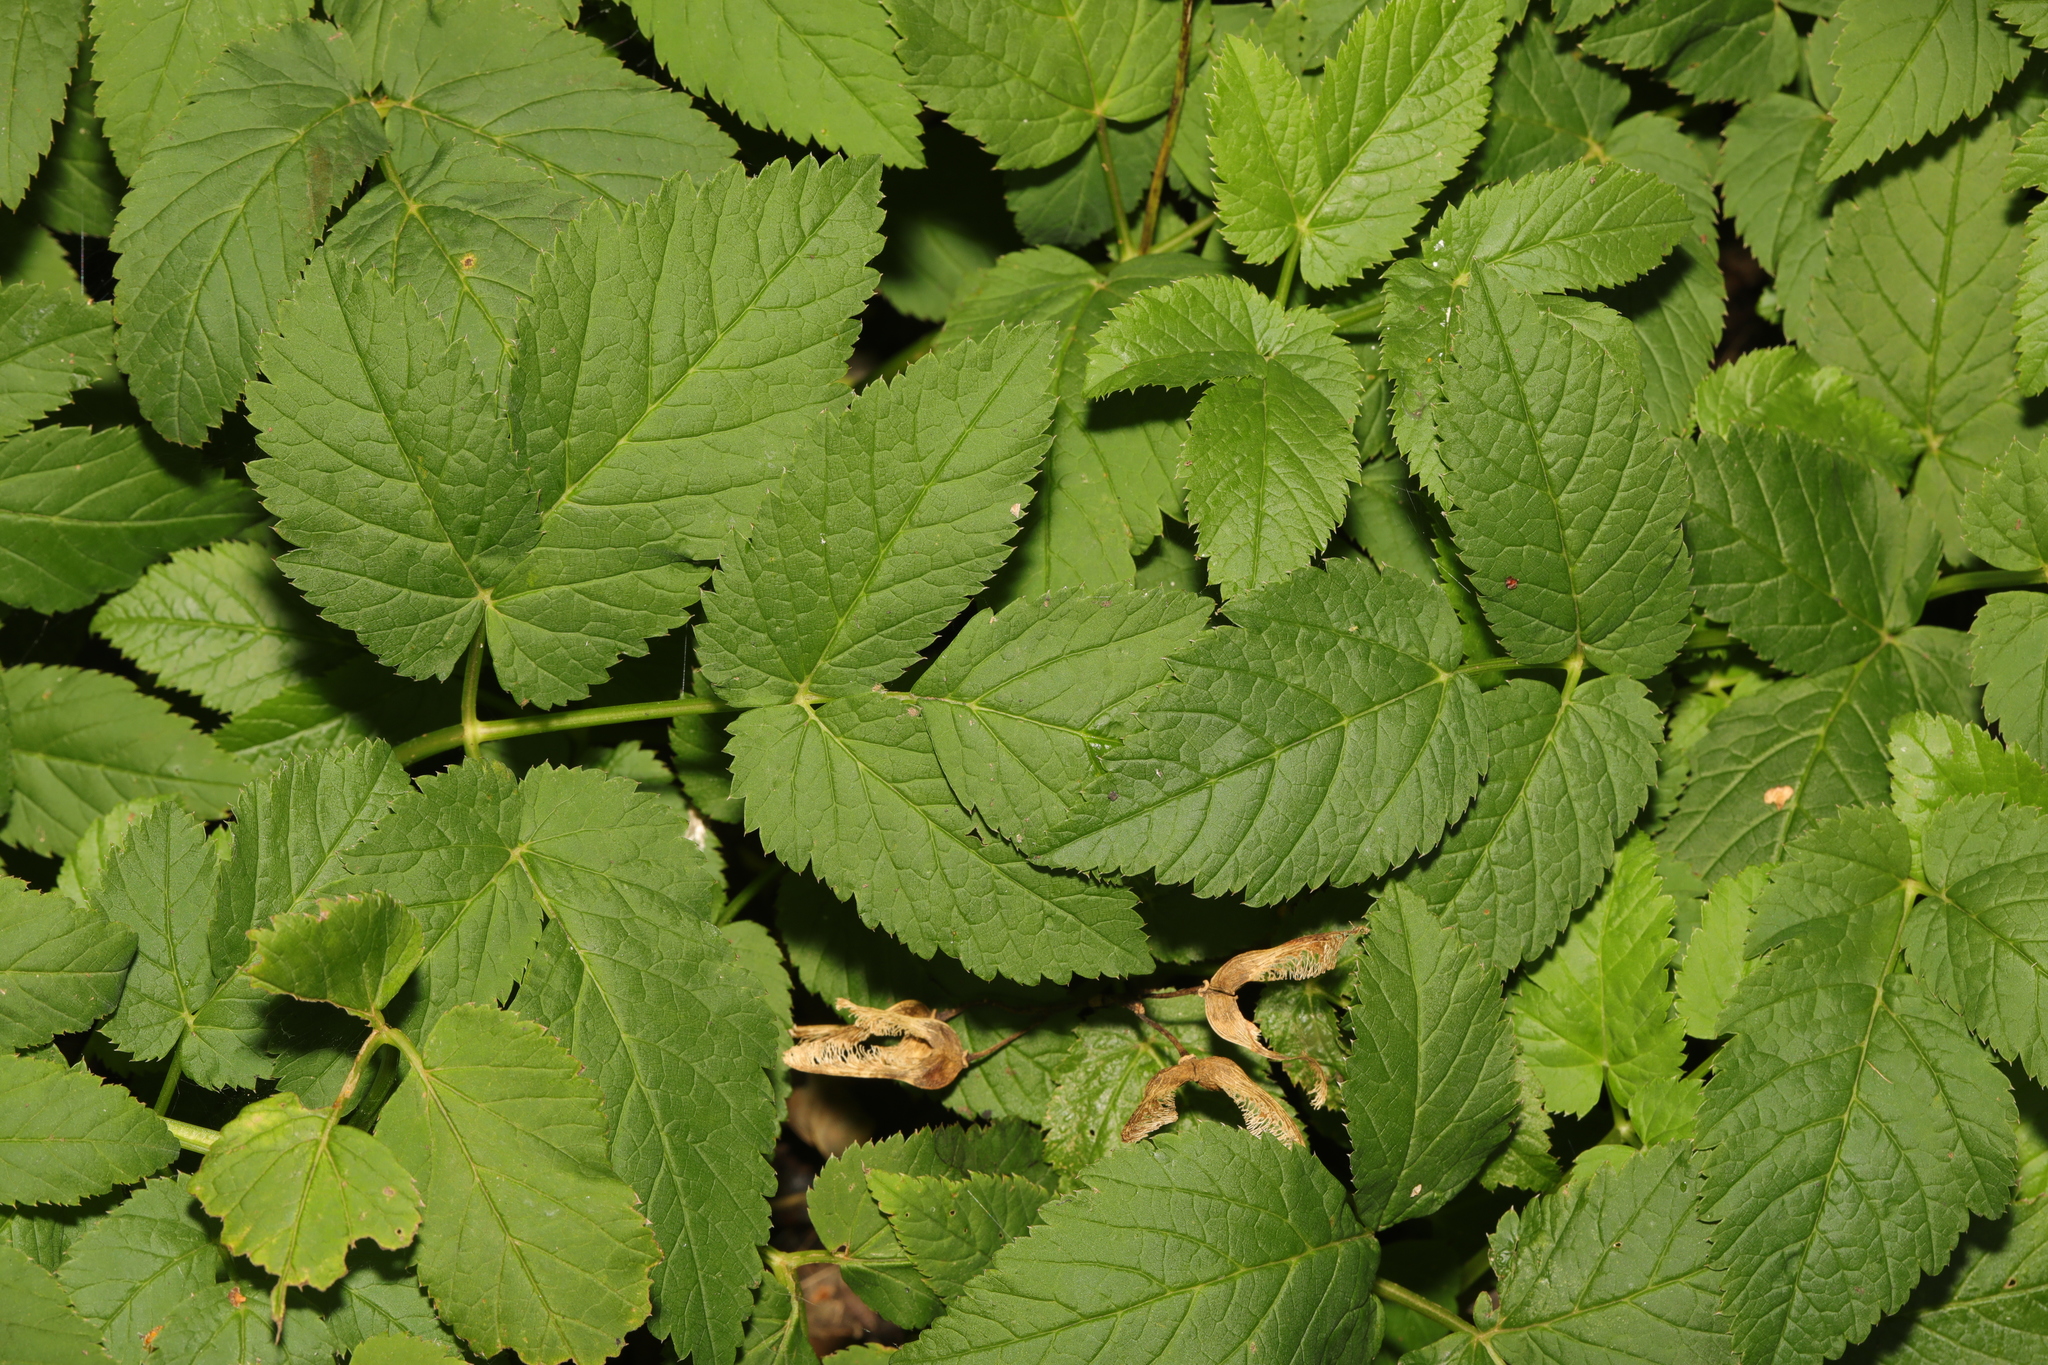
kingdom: Plantae
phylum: Tracheophyta
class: Magnoliopsida
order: Apiales
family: Apiaceae
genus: Aegopodium
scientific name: Aegopodium podagraria
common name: Ground-elder
